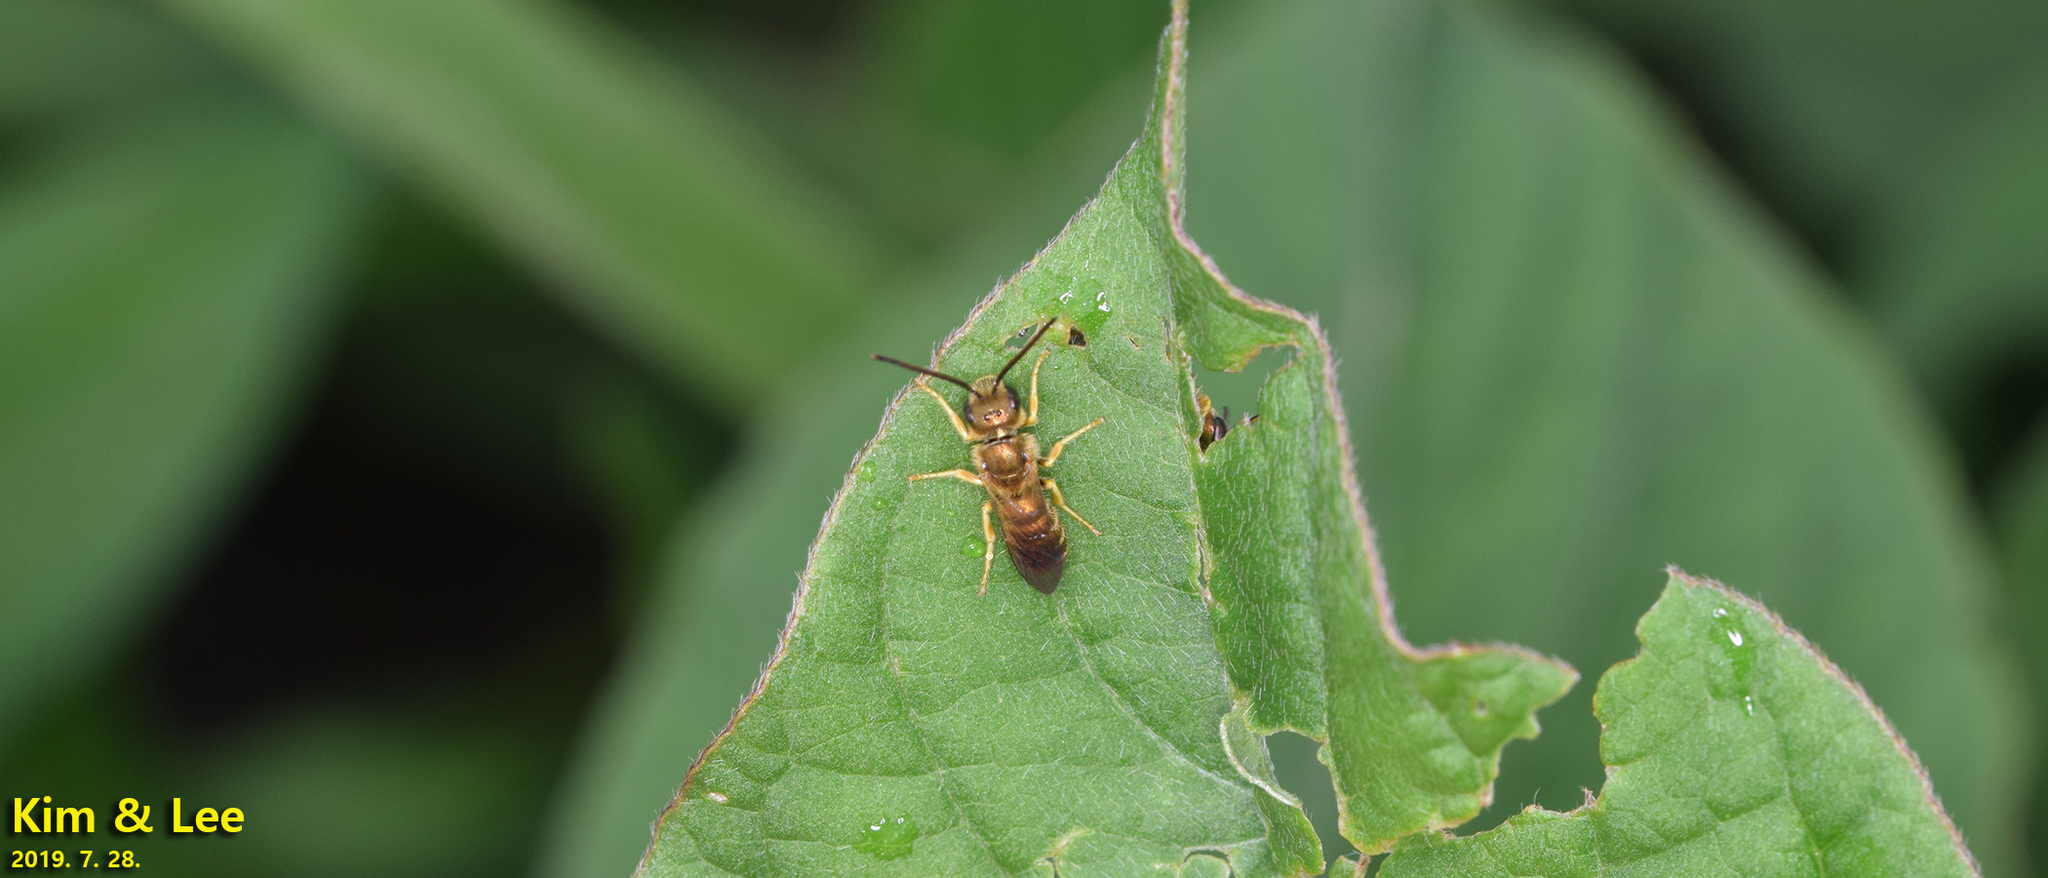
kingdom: Animalia
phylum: Arthropoda
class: Insecta
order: Hymenoptera
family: Halictidae
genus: Halictus
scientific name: Halictus aerarius
